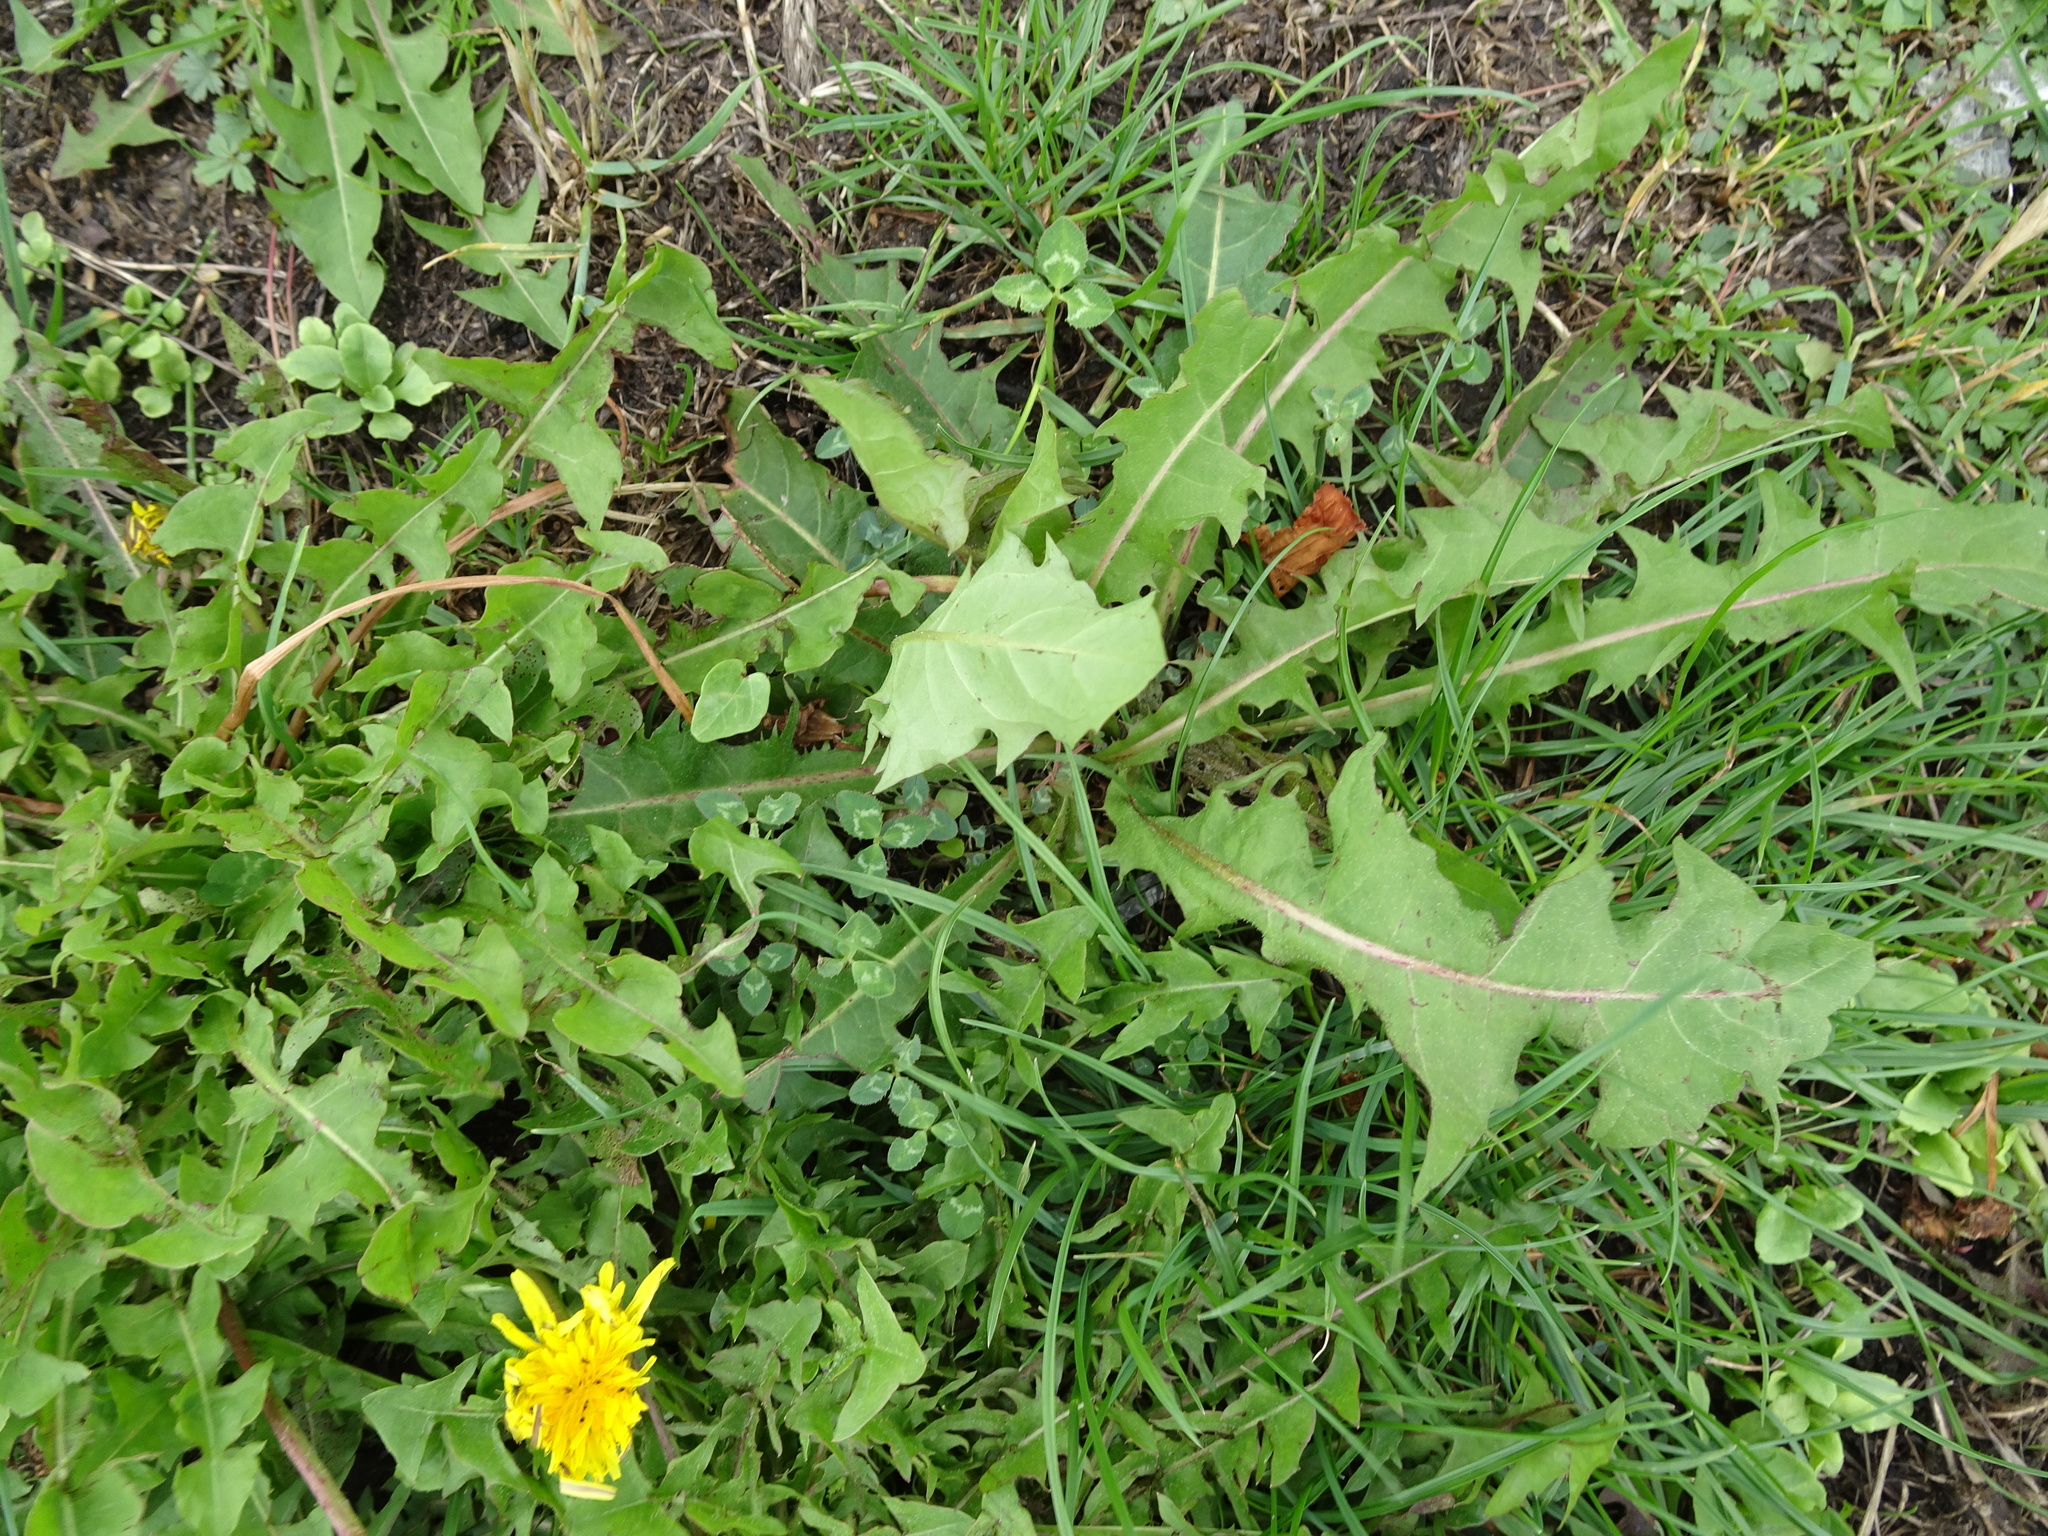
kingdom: Plantae
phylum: Tracheophyta
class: Magnoliopsida
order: Asterales
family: Asteraceae
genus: Taraxacum
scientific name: Taraxacum officinale
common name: Common dandelion
